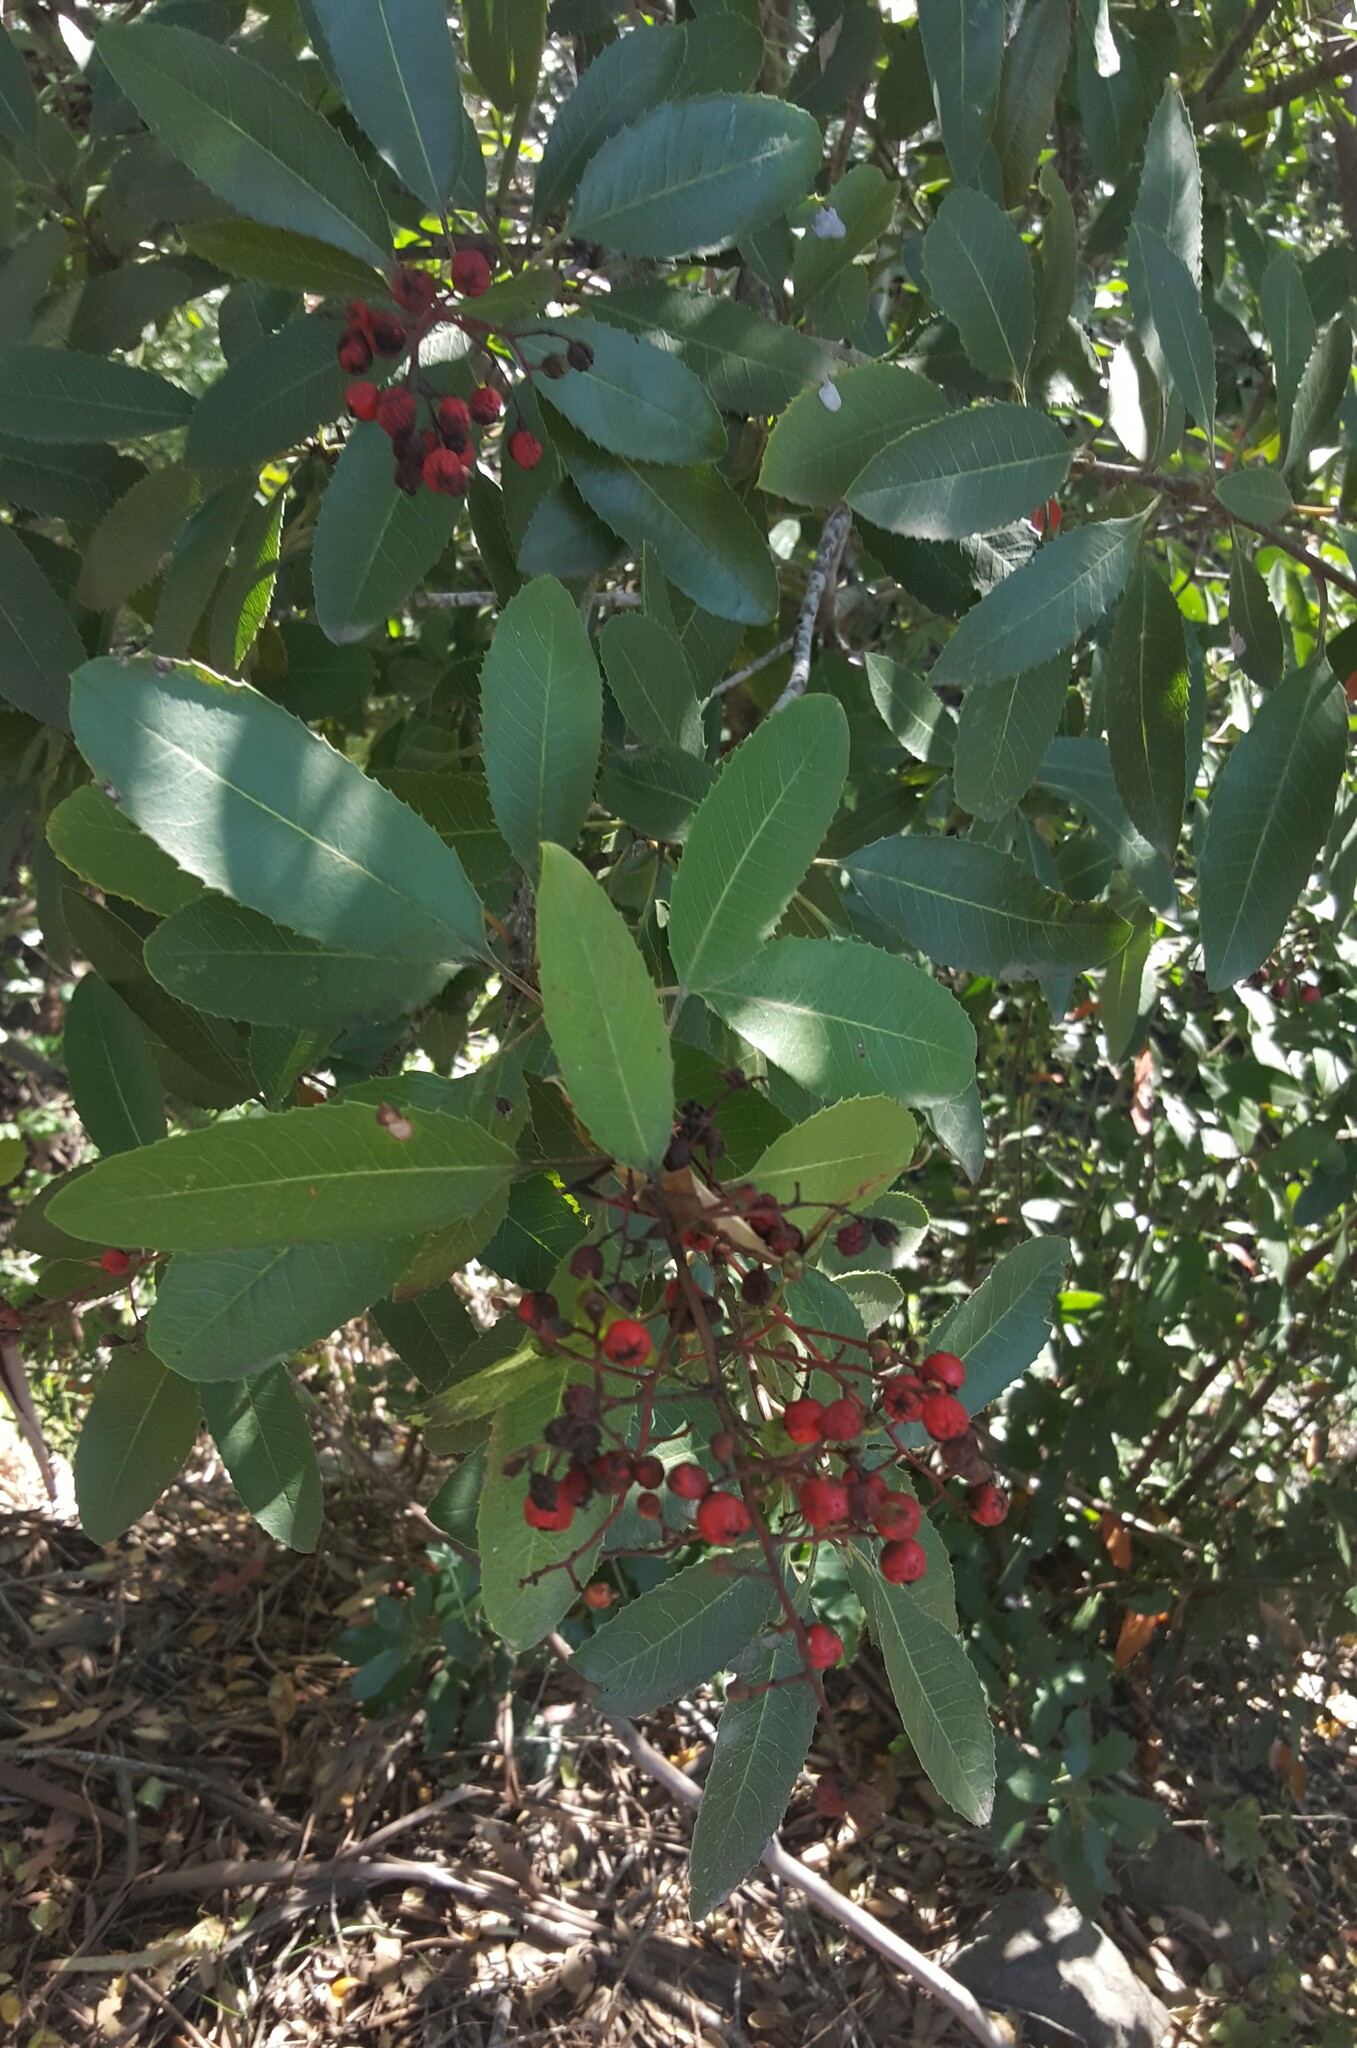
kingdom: Plantae
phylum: Tracheophyta
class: Magnoliopsida
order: Rosales
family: Rosaceae
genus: Heteromeles
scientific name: Heteromeles arbutifolia
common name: California-holly
